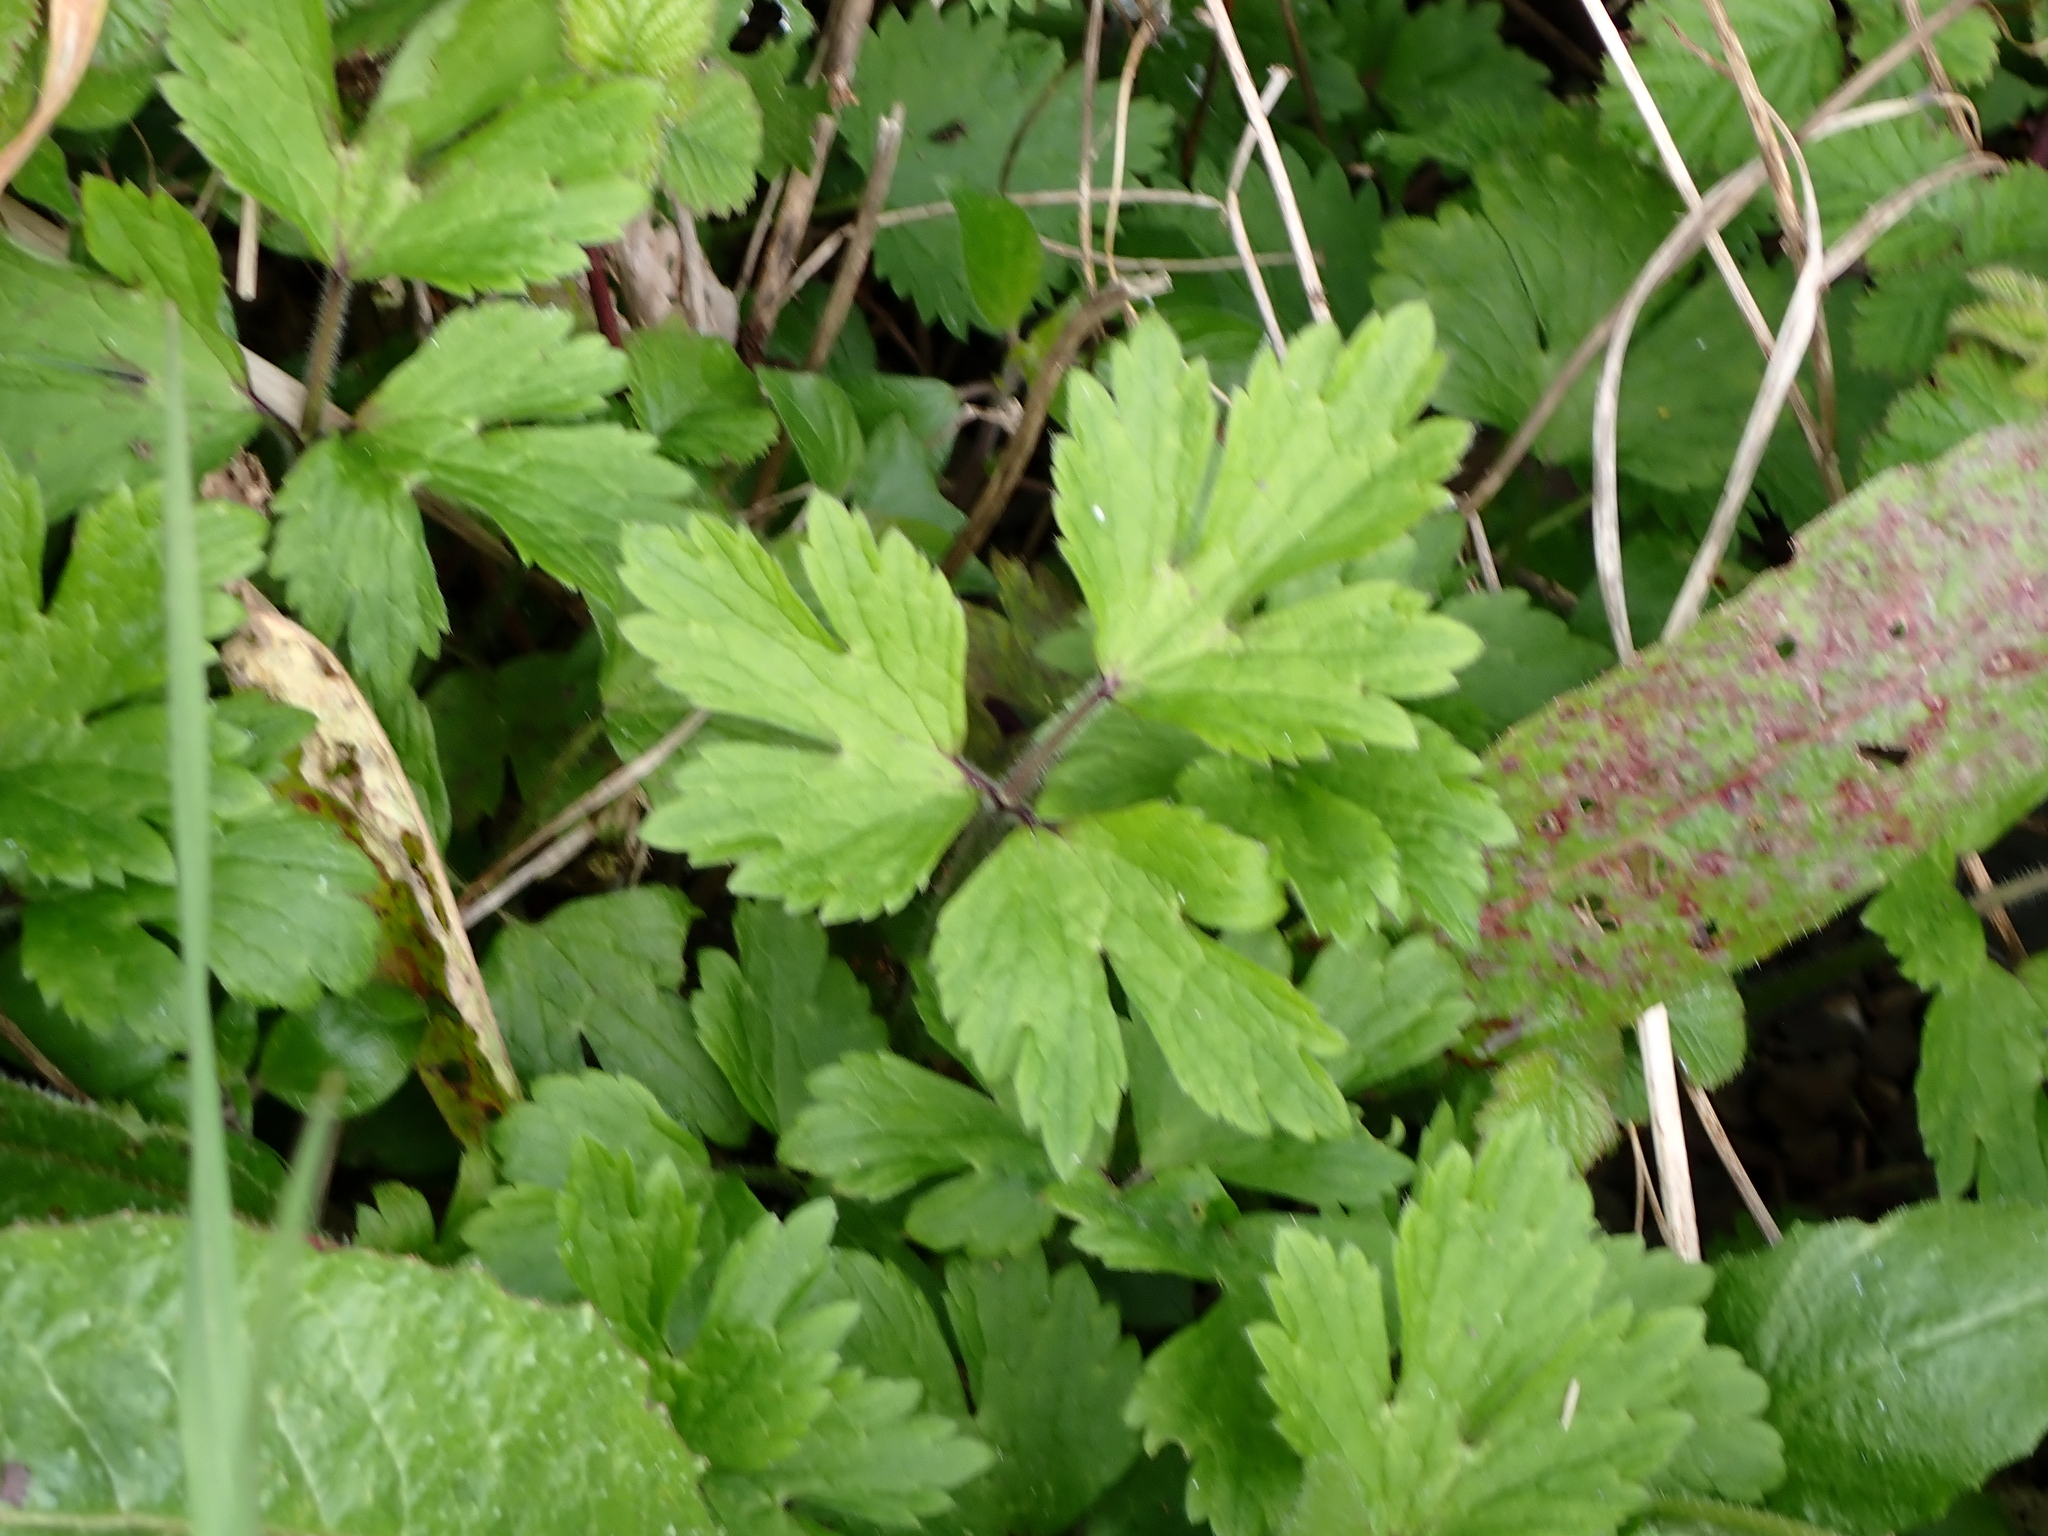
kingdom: Plantae
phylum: Tracheophyta
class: Magnoliopsida
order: Ranunculales
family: Ranunculaceae
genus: Ranunculus
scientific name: Ranunculus repens
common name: Creeping buttercup
